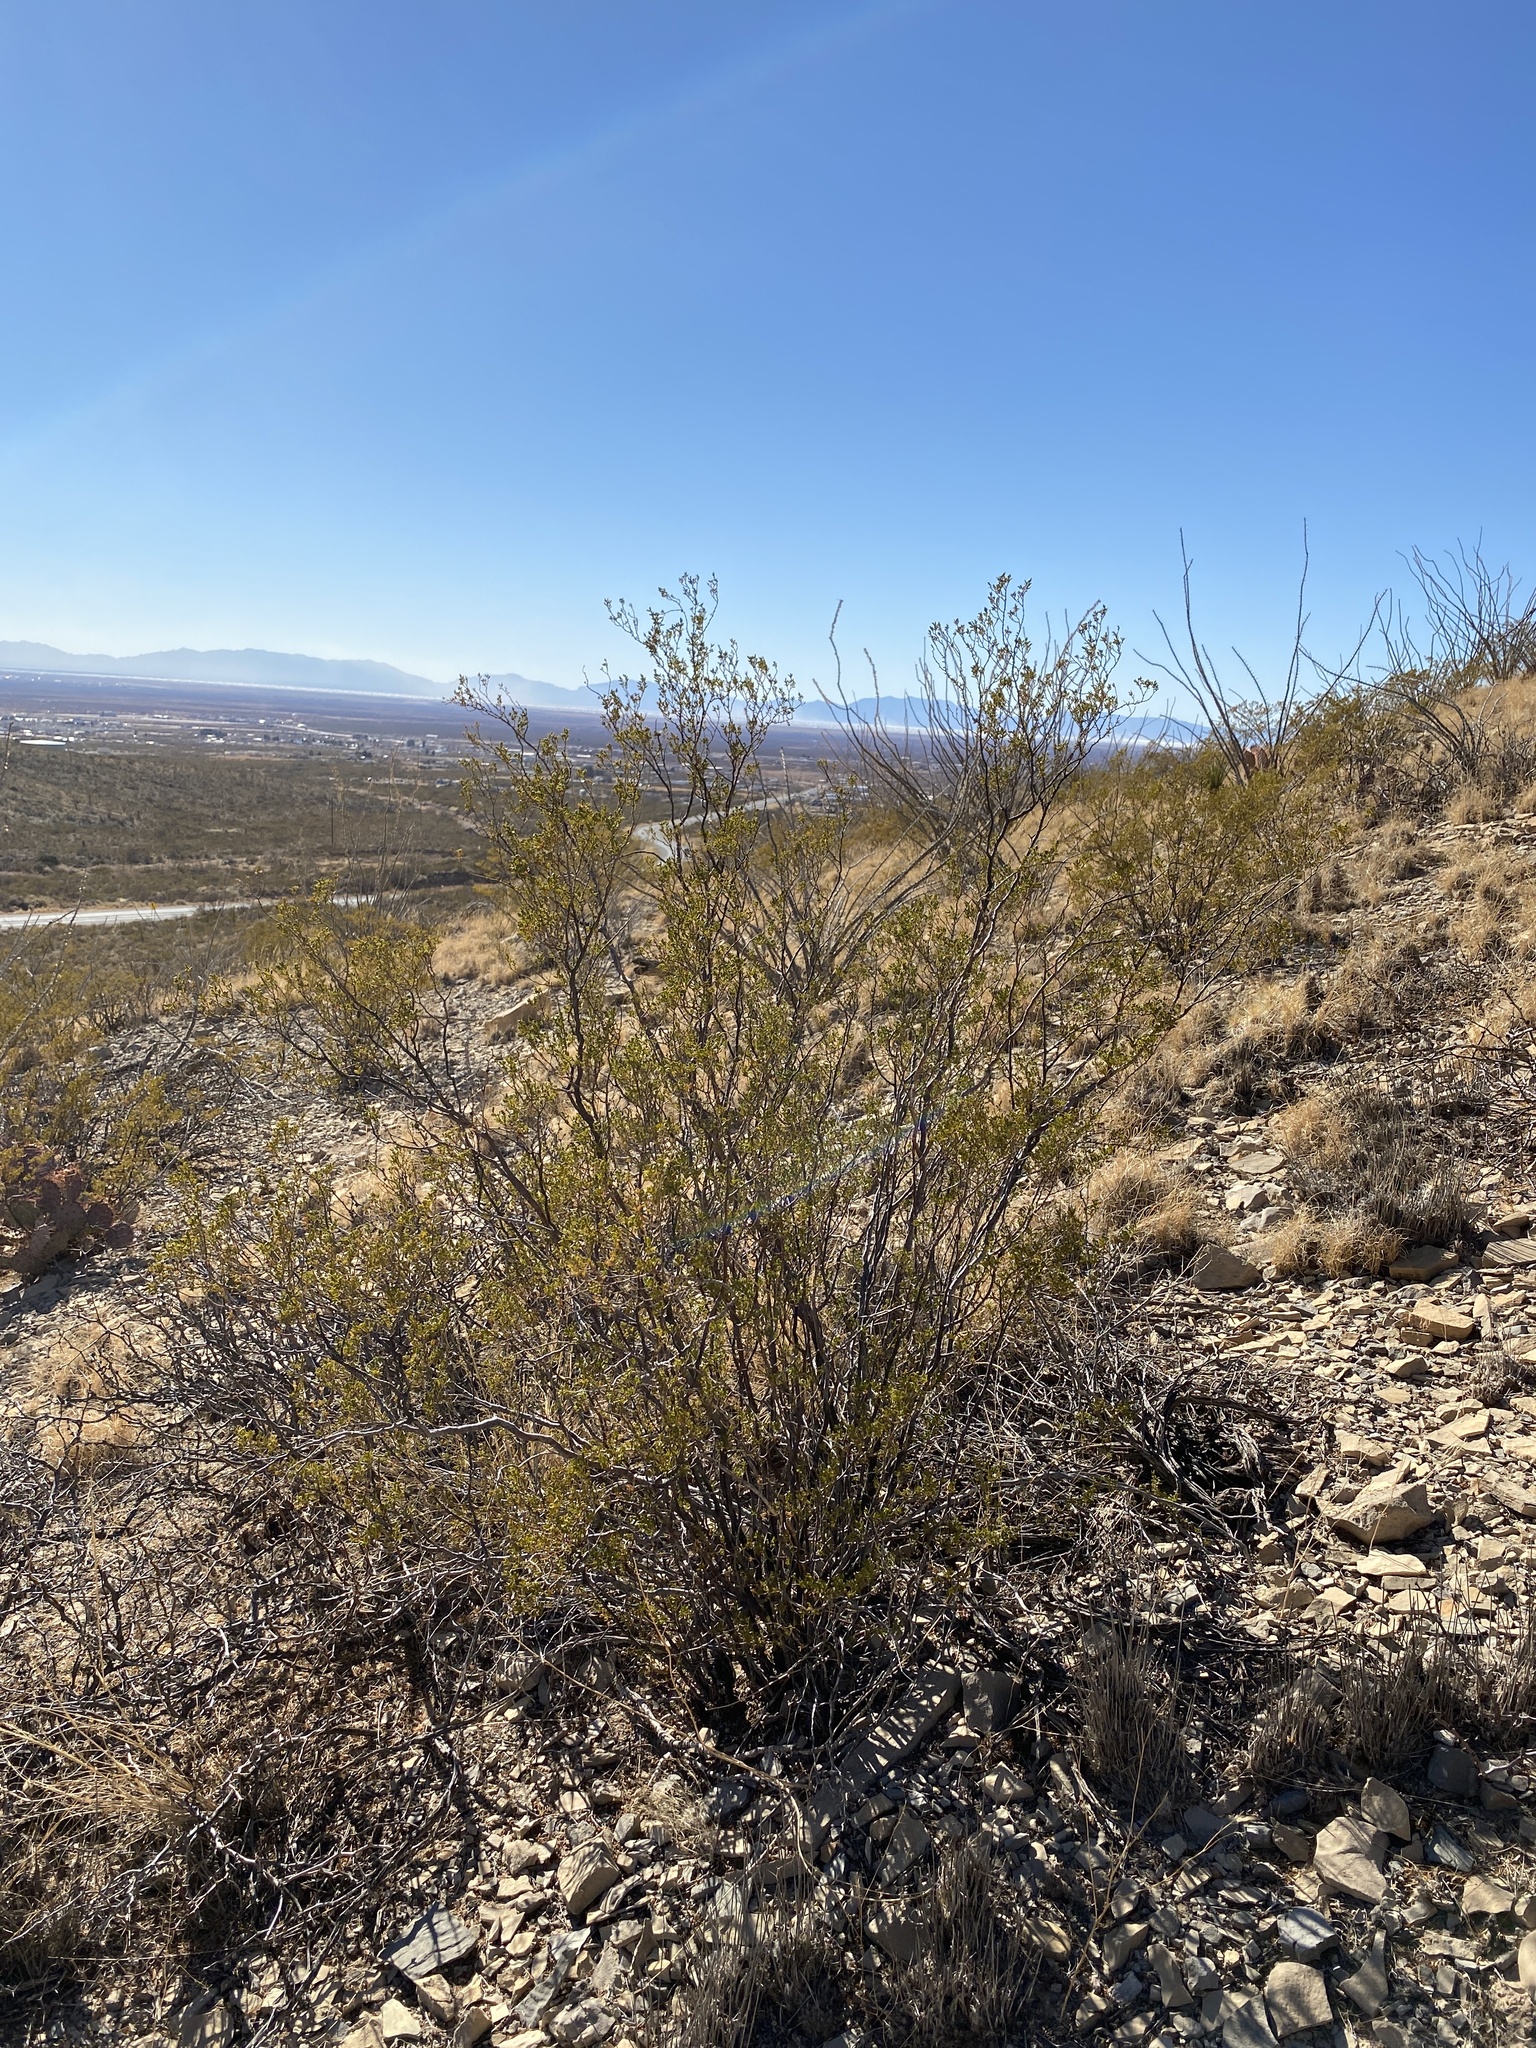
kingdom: Plantae
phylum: Tracheophyta
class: Magnoliopsida
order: Zygophyllales
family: Zygophyllaceae
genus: Larrea
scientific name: Larrea tridentata
